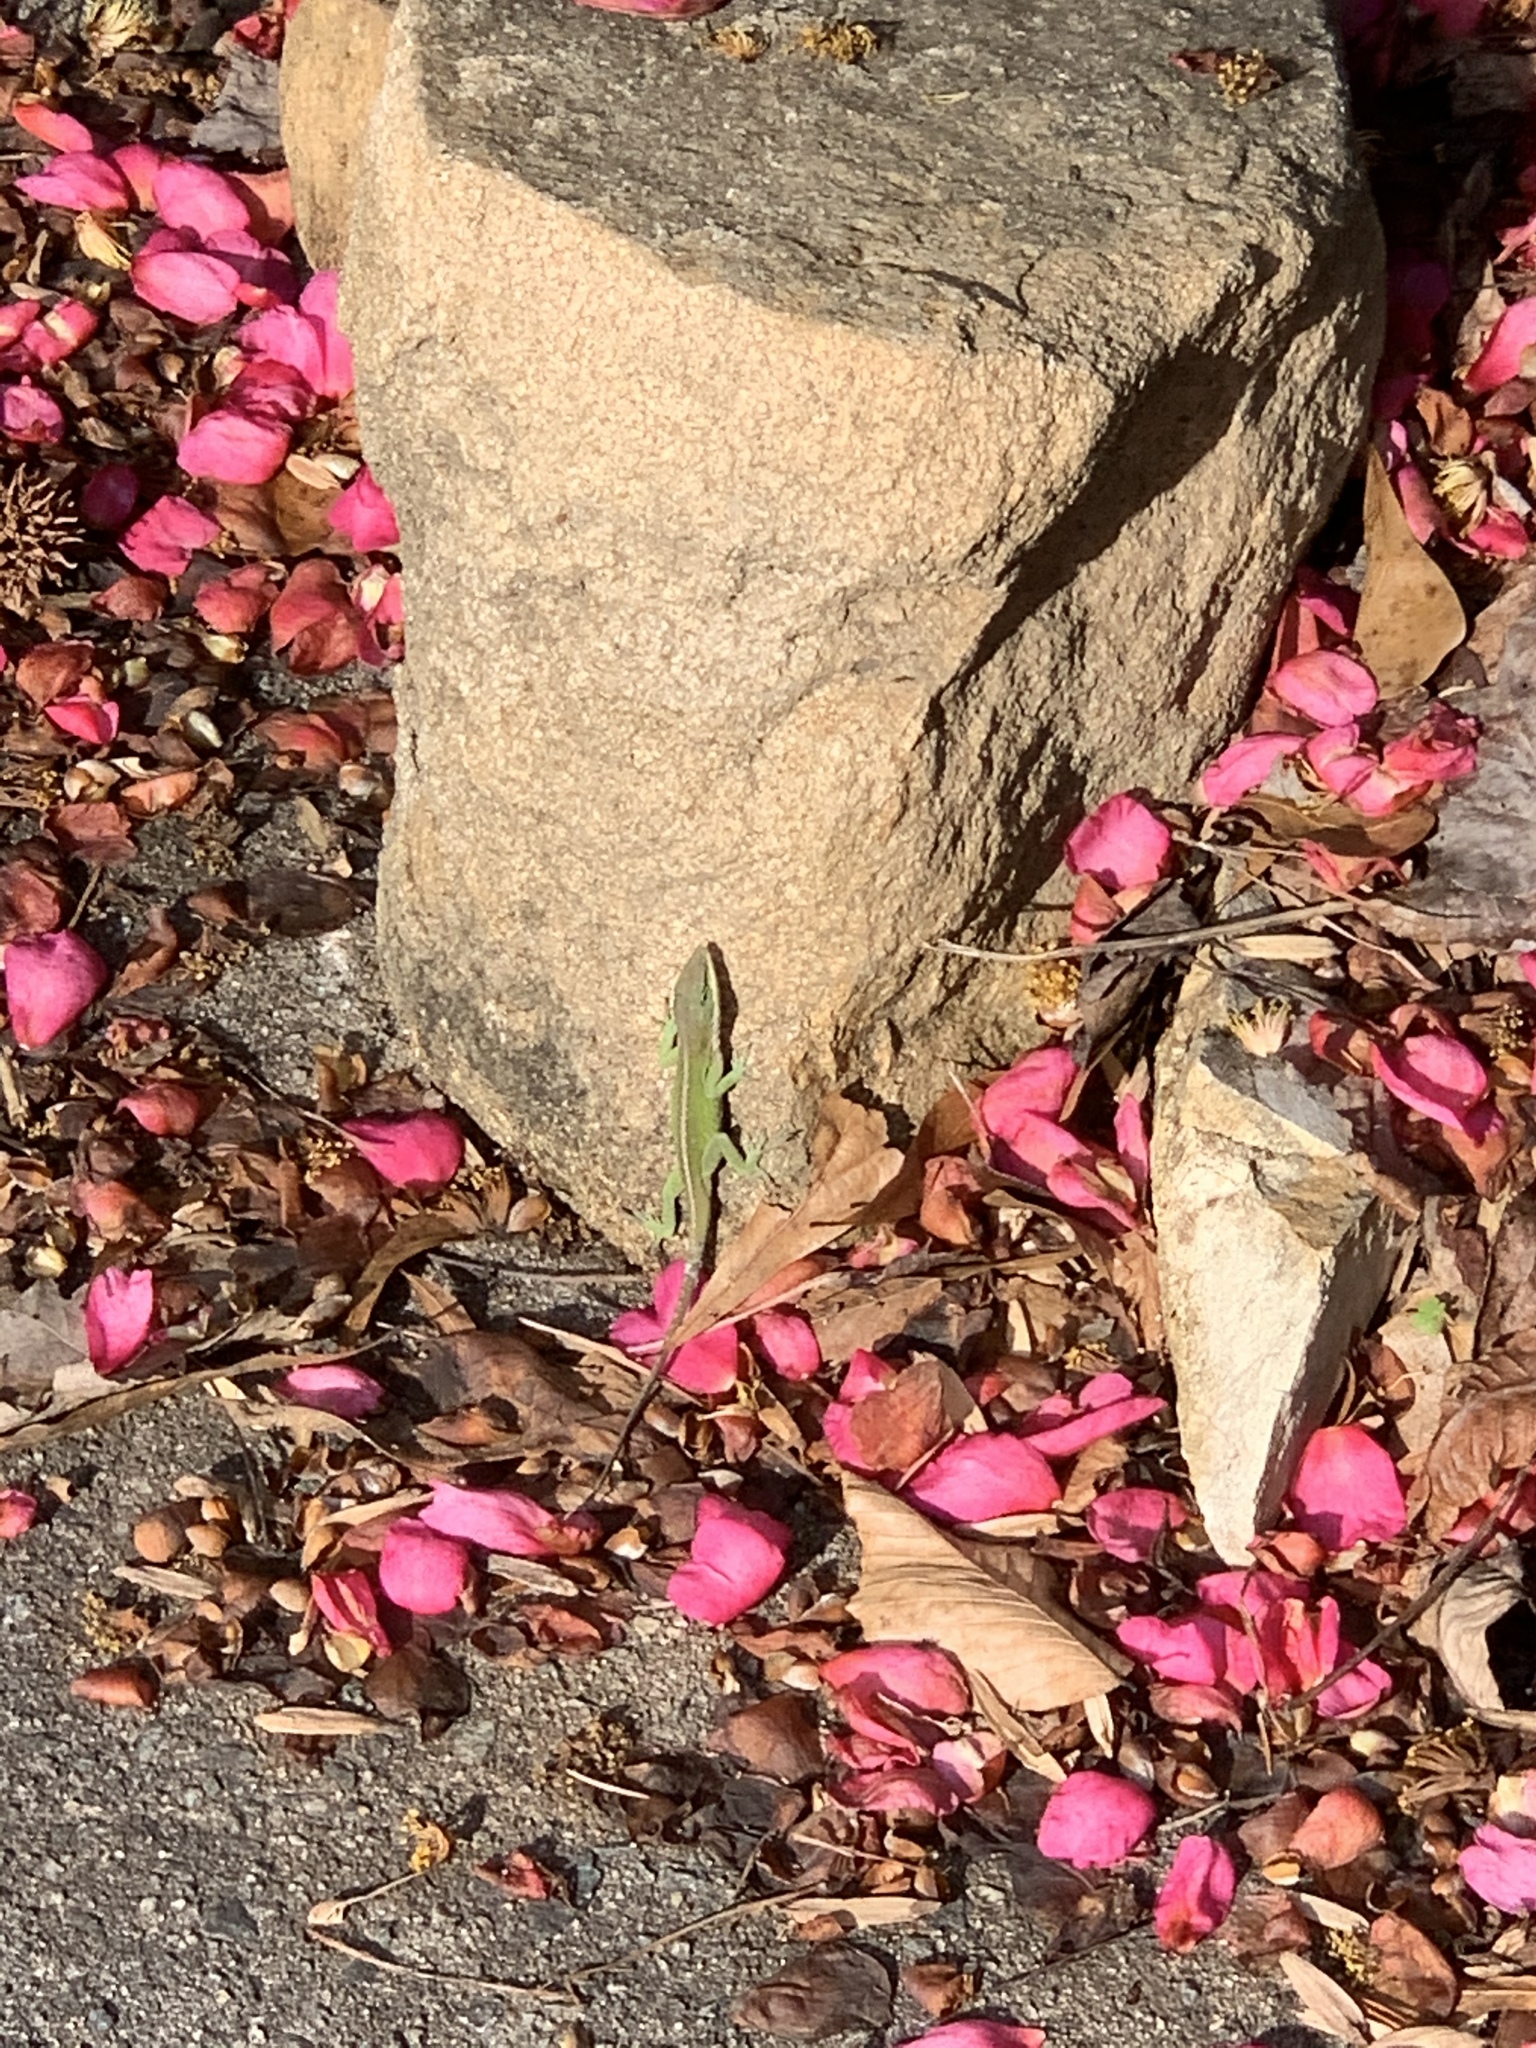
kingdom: Animalia
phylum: Chordata
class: Squamata
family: Dactyloidae
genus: Anolis
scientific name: Anolis carolinensis
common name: Green anole
